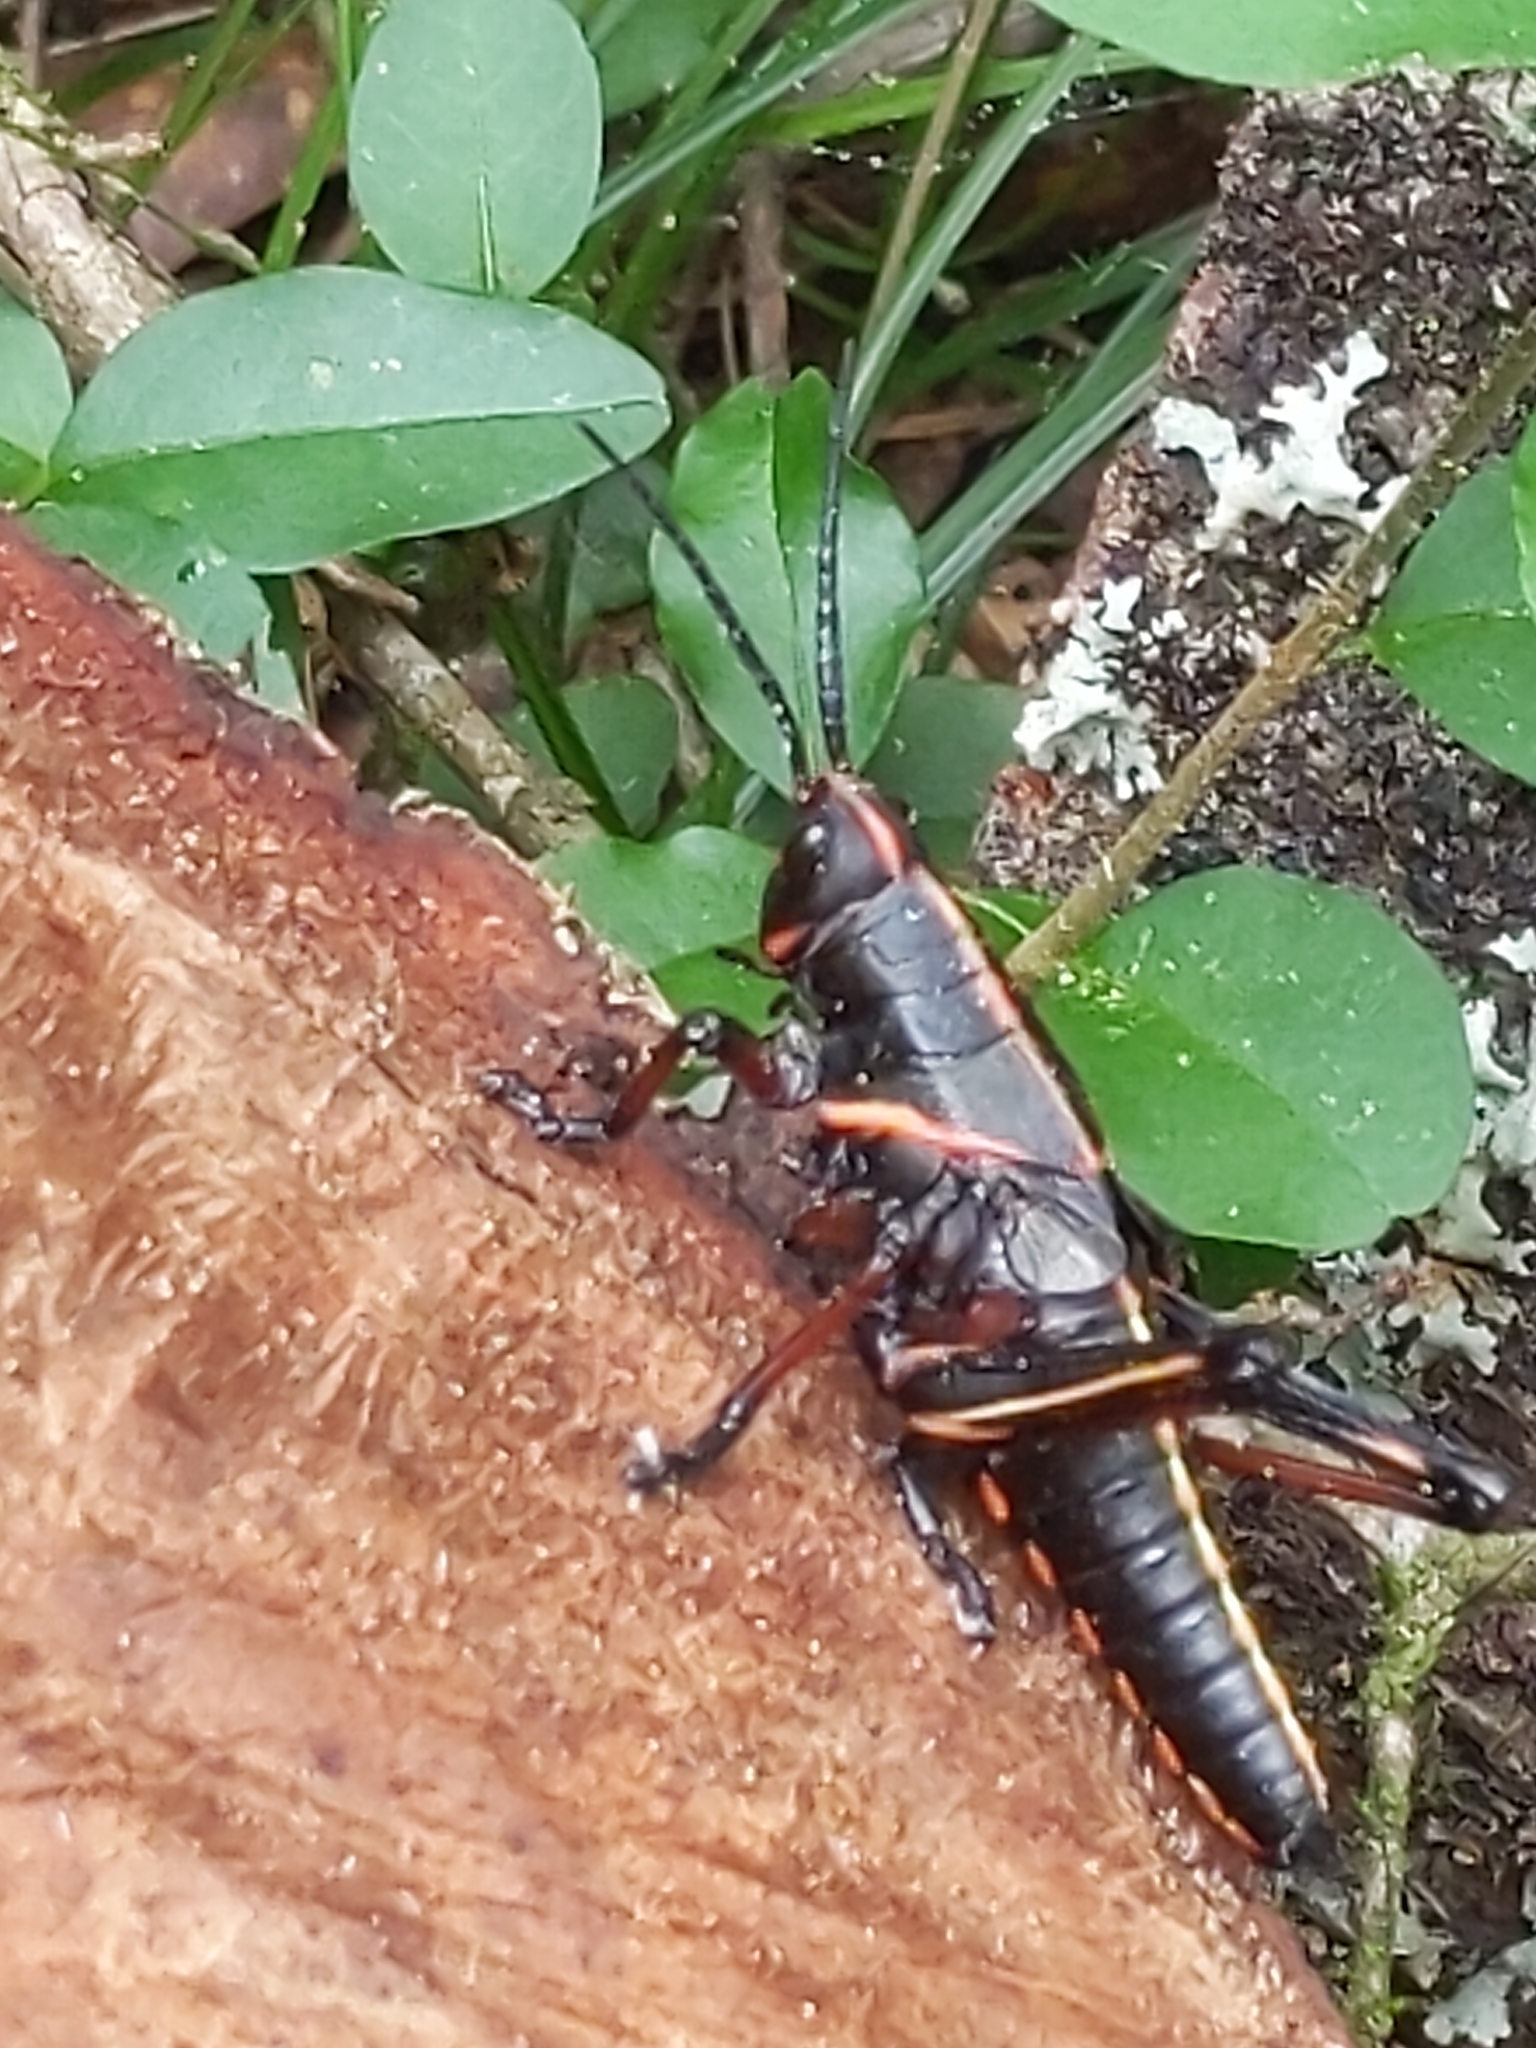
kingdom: Animalia
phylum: Arthropoda
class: Insecta
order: Orthoptera
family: Romaleidae
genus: Romalea
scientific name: Romalea microptera
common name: Eastern lubber grasshopper
